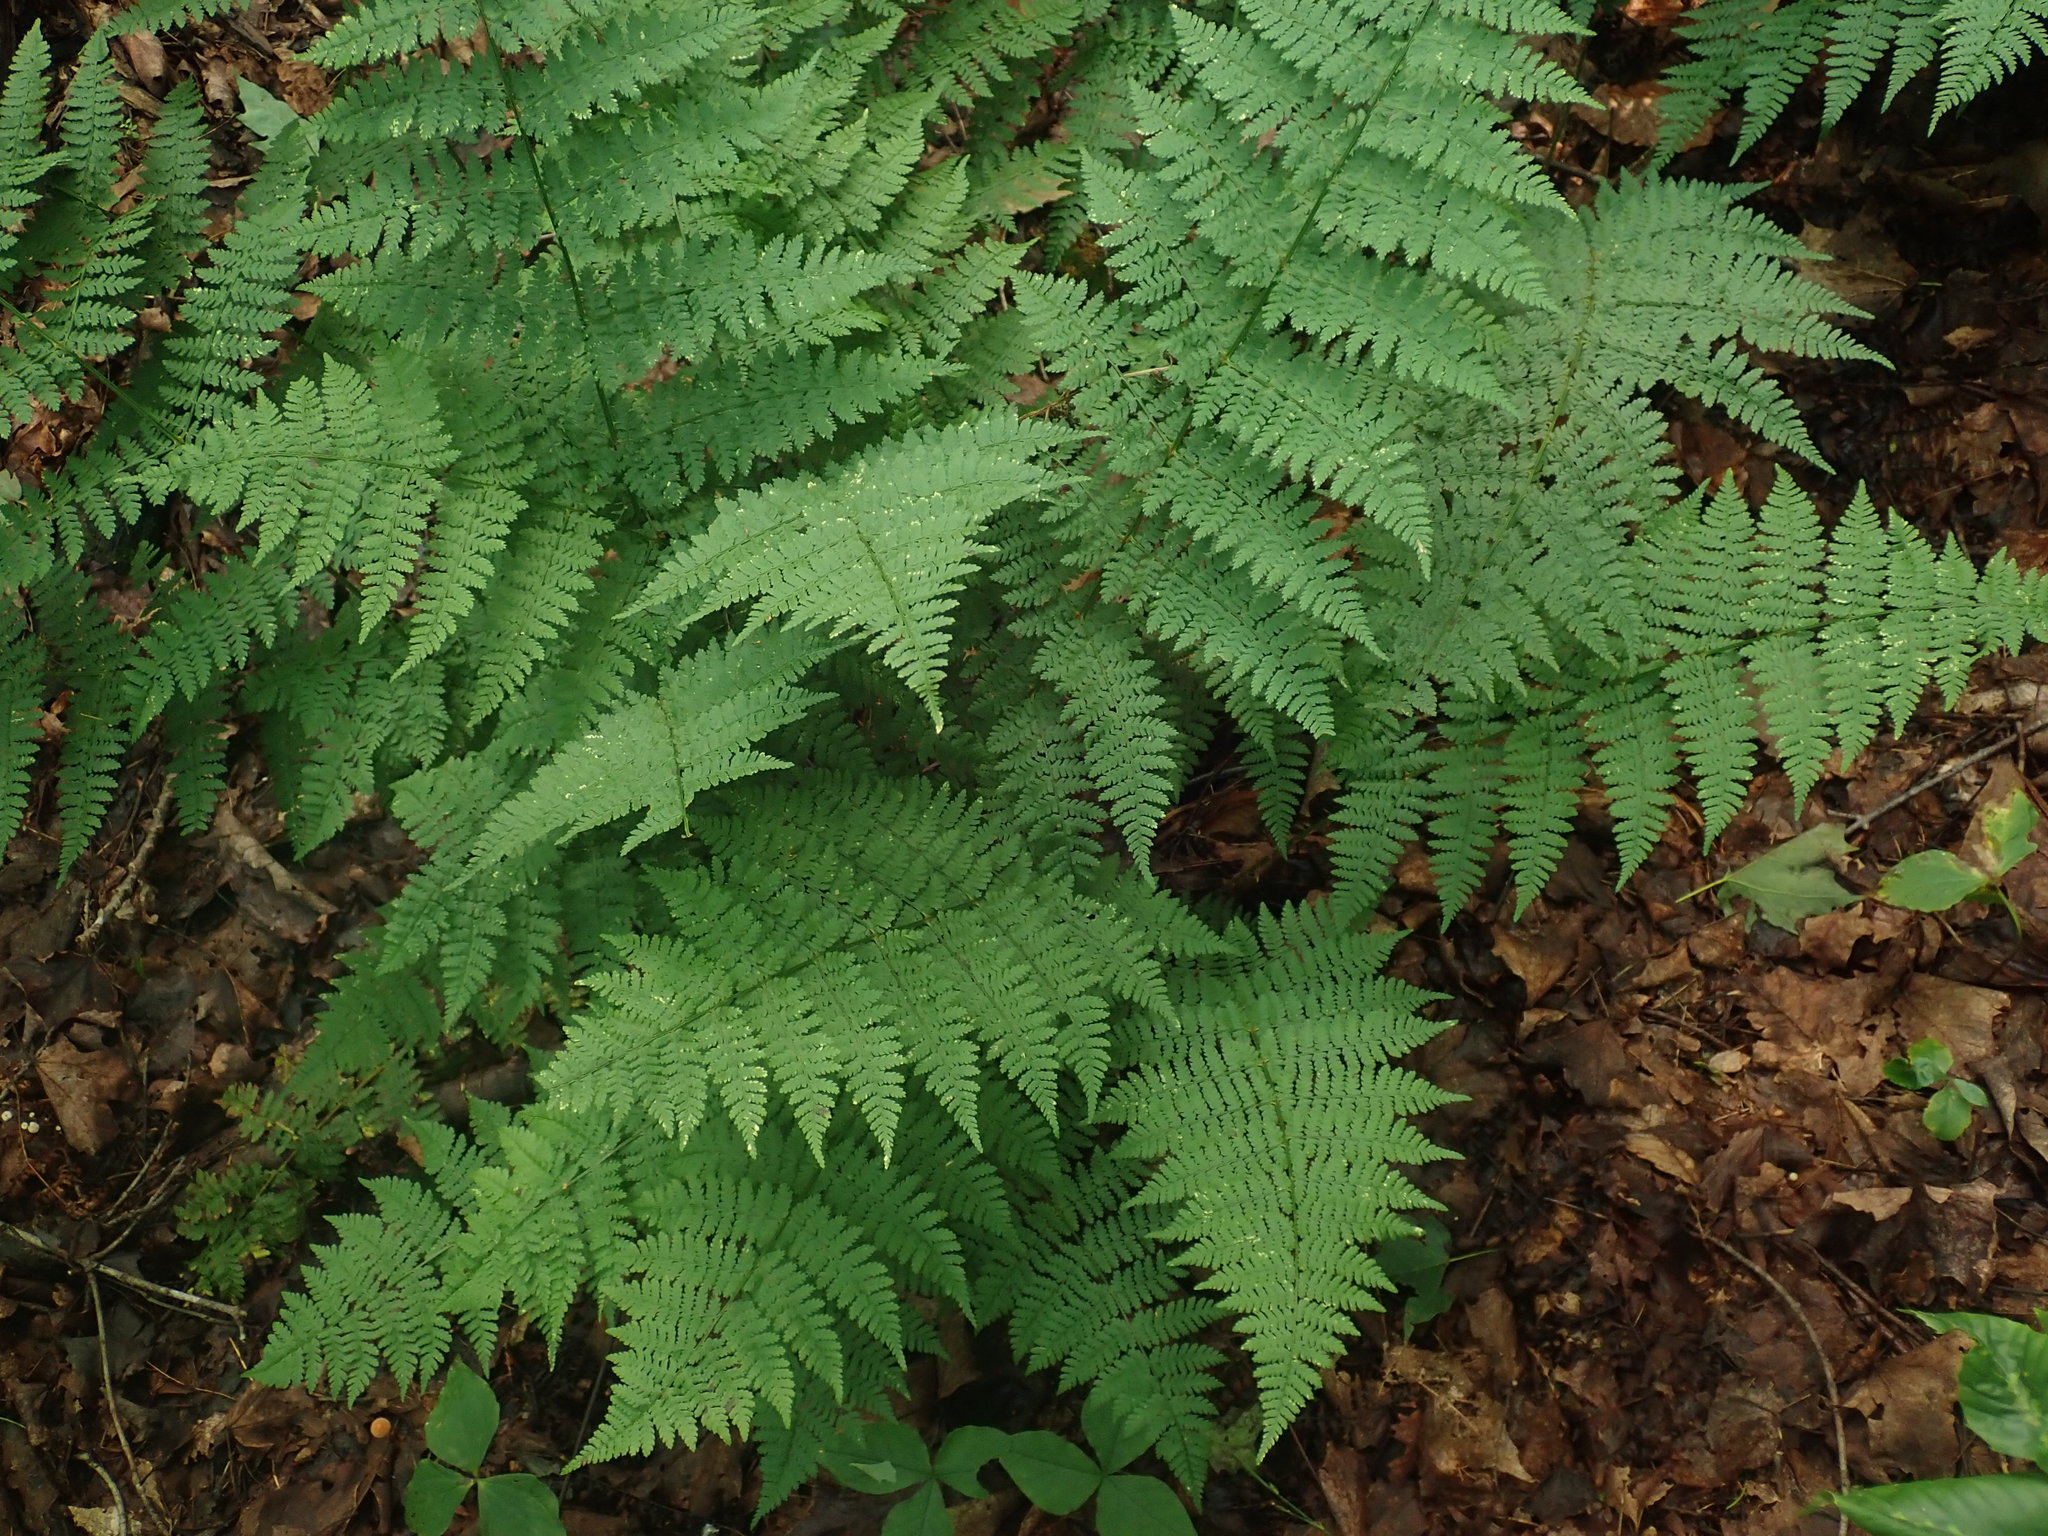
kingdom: Plantae
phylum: Tracheophyta
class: Polypodiopsida
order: Polypodiales
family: Dryopteridaceae
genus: Dryopteris
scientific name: Dryopteris intermedia
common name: Evergreen wood fern
